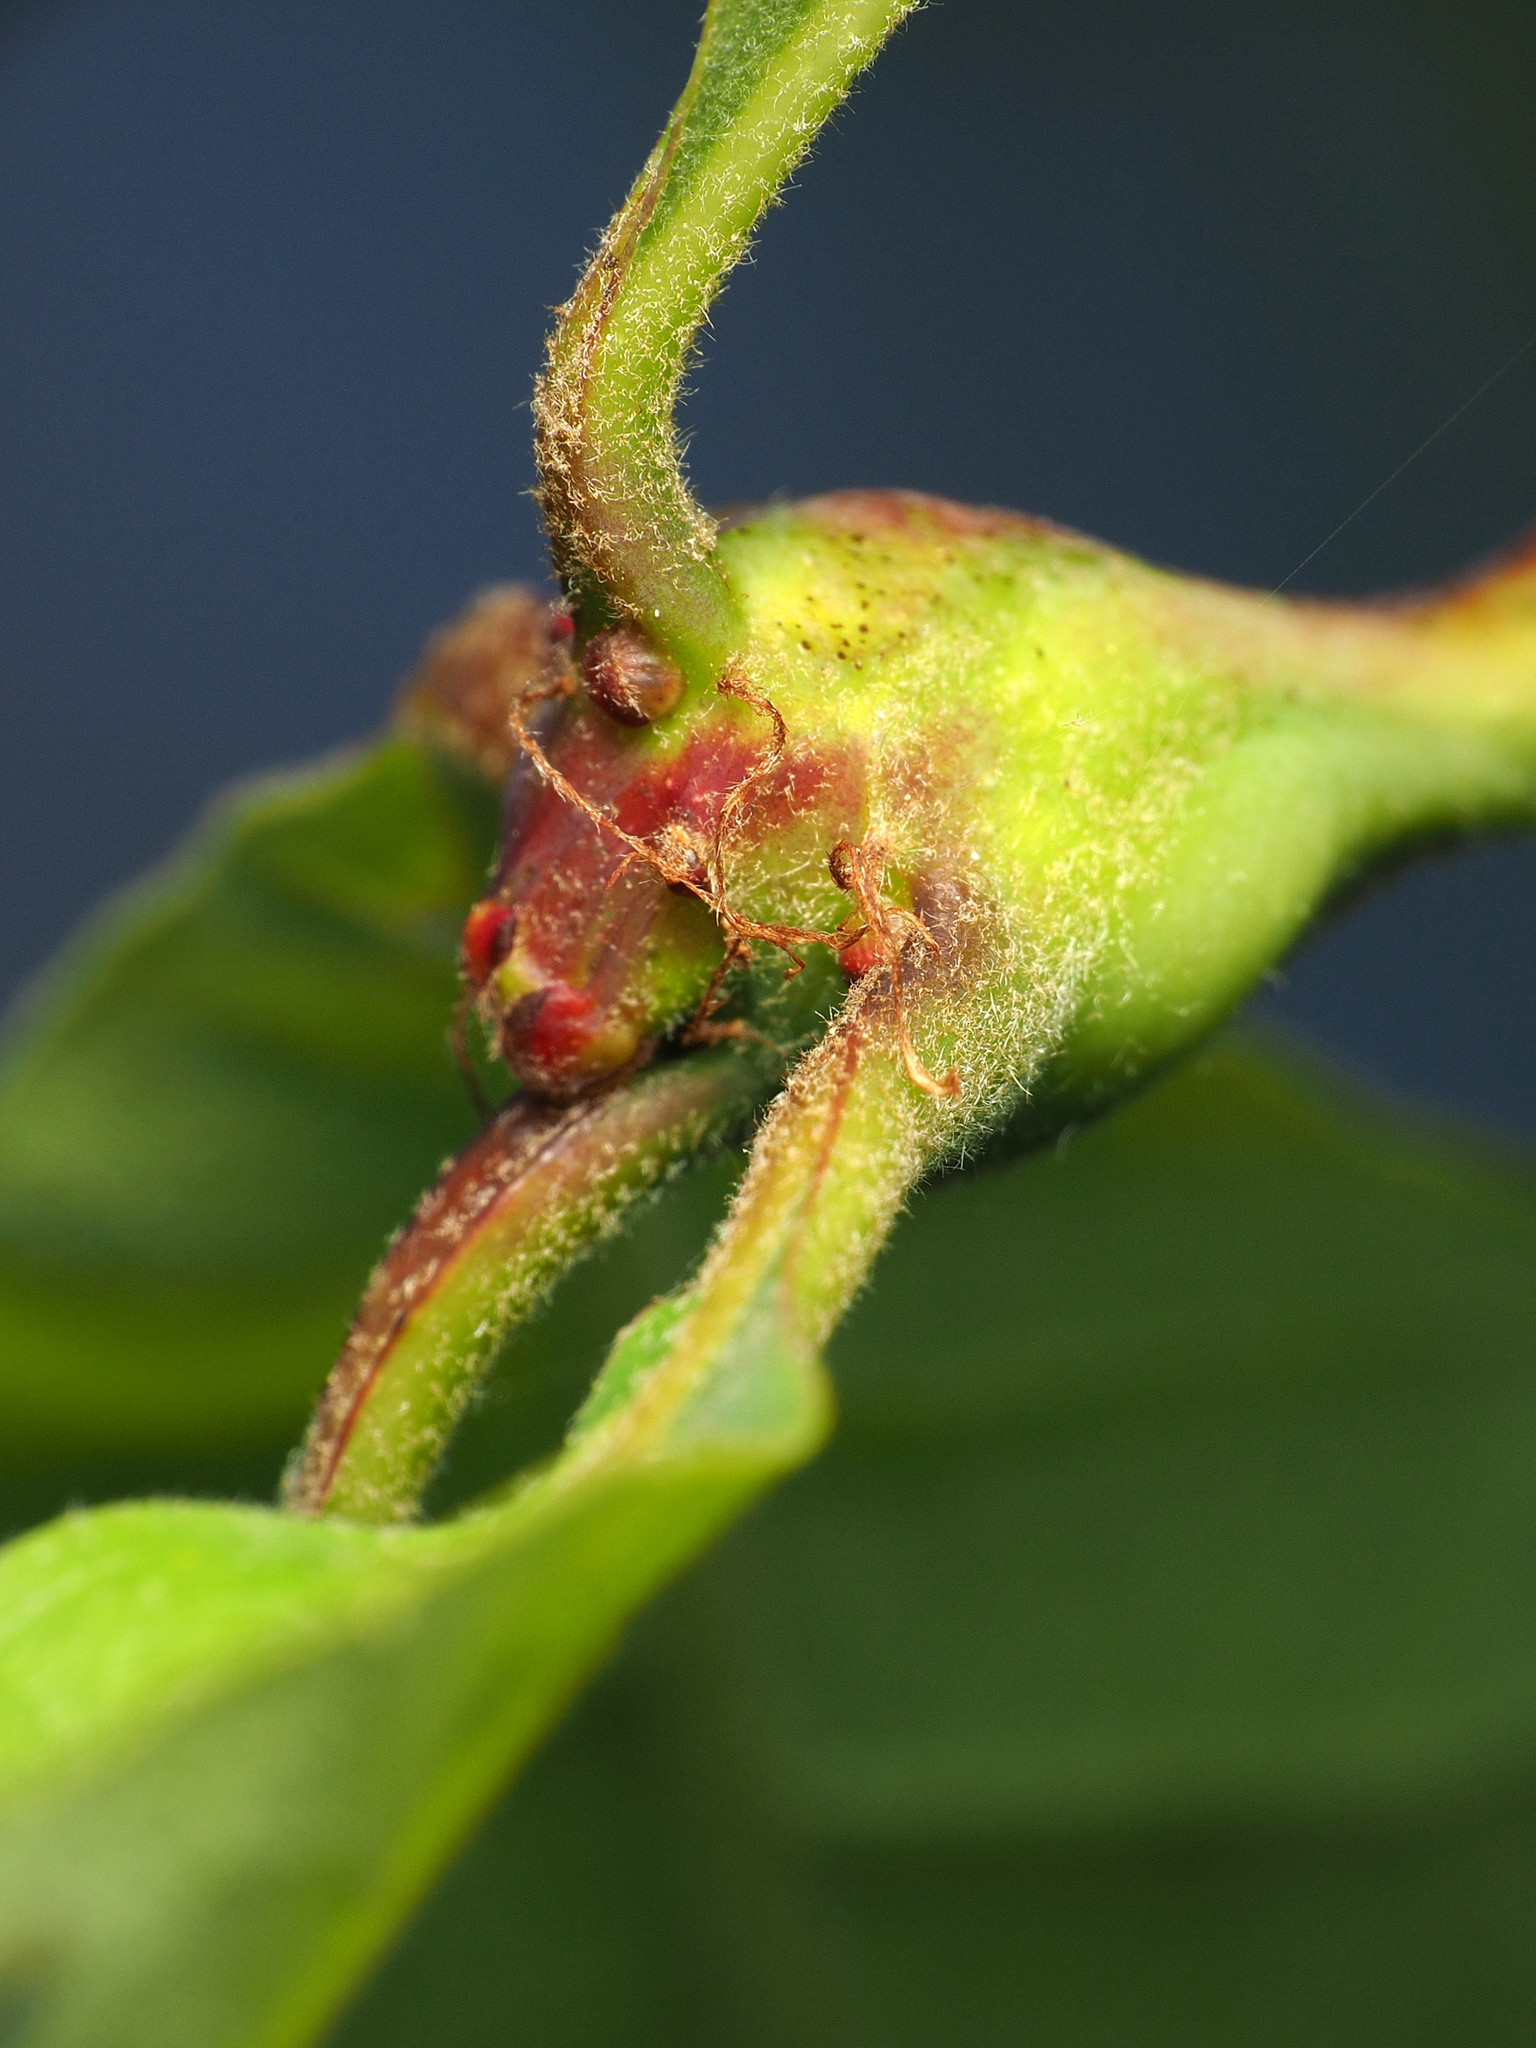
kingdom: Animalia
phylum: Arthropoda
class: Insecta
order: Hymenoptera
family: Cynipidae
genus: Callirhytis
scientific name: Callirhytis clavula
